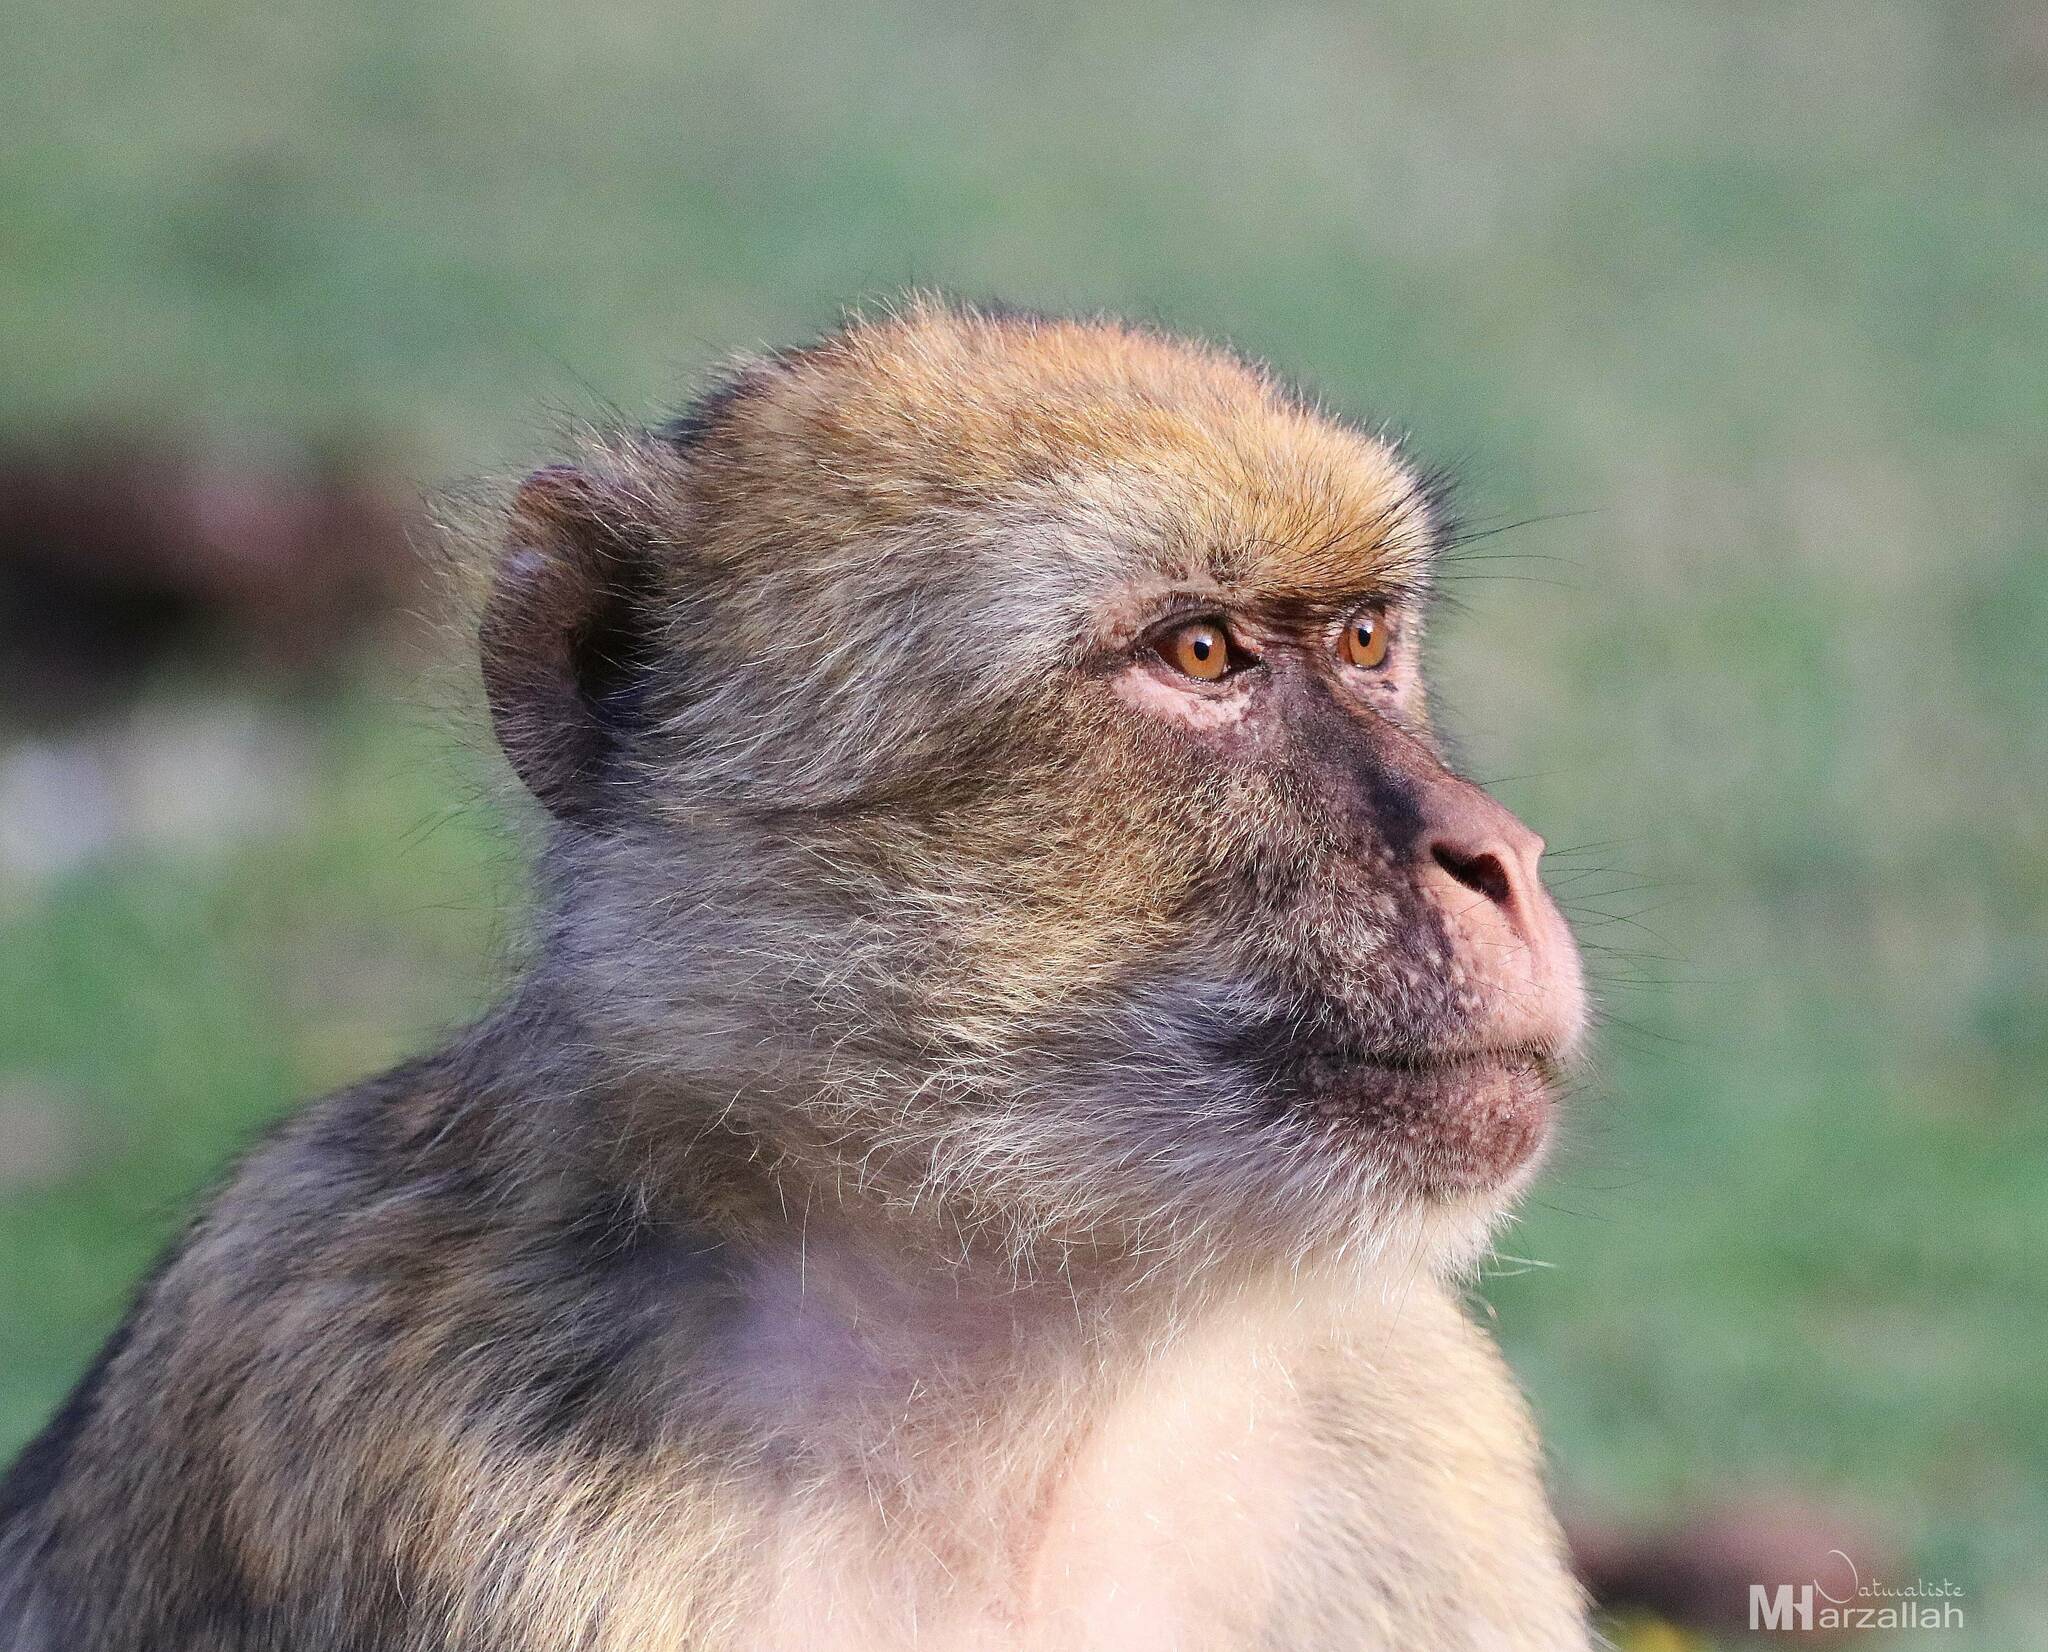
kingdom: Animalia
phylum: Chordata
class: Mammalia
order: Primates
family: Cercopithecidae
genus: Macaca
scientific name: Macaca sylvanus
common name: Barbary macaque
